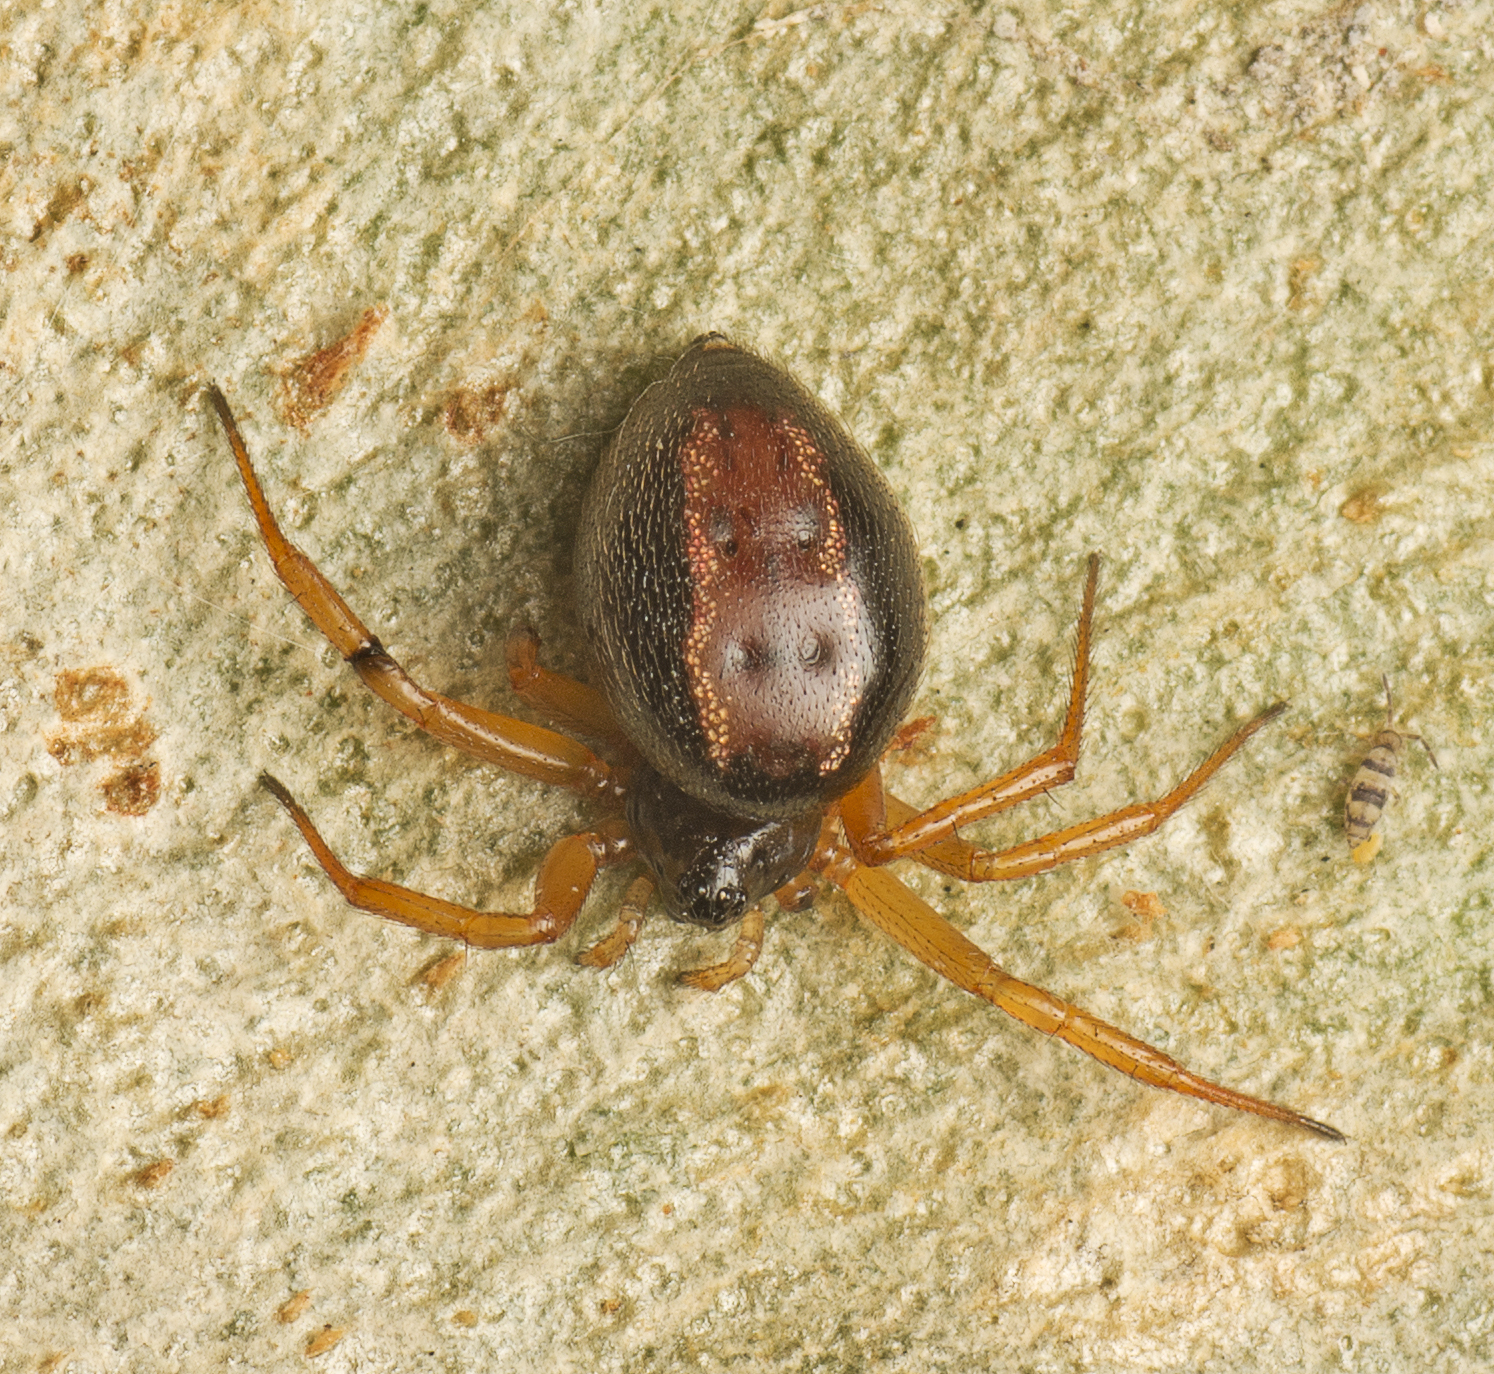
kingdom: Animalia
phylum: Arthropoda
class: Arachnida
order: Araneae
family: Theridiidae
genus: Euryopis
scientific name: Euryopis umbilicata
